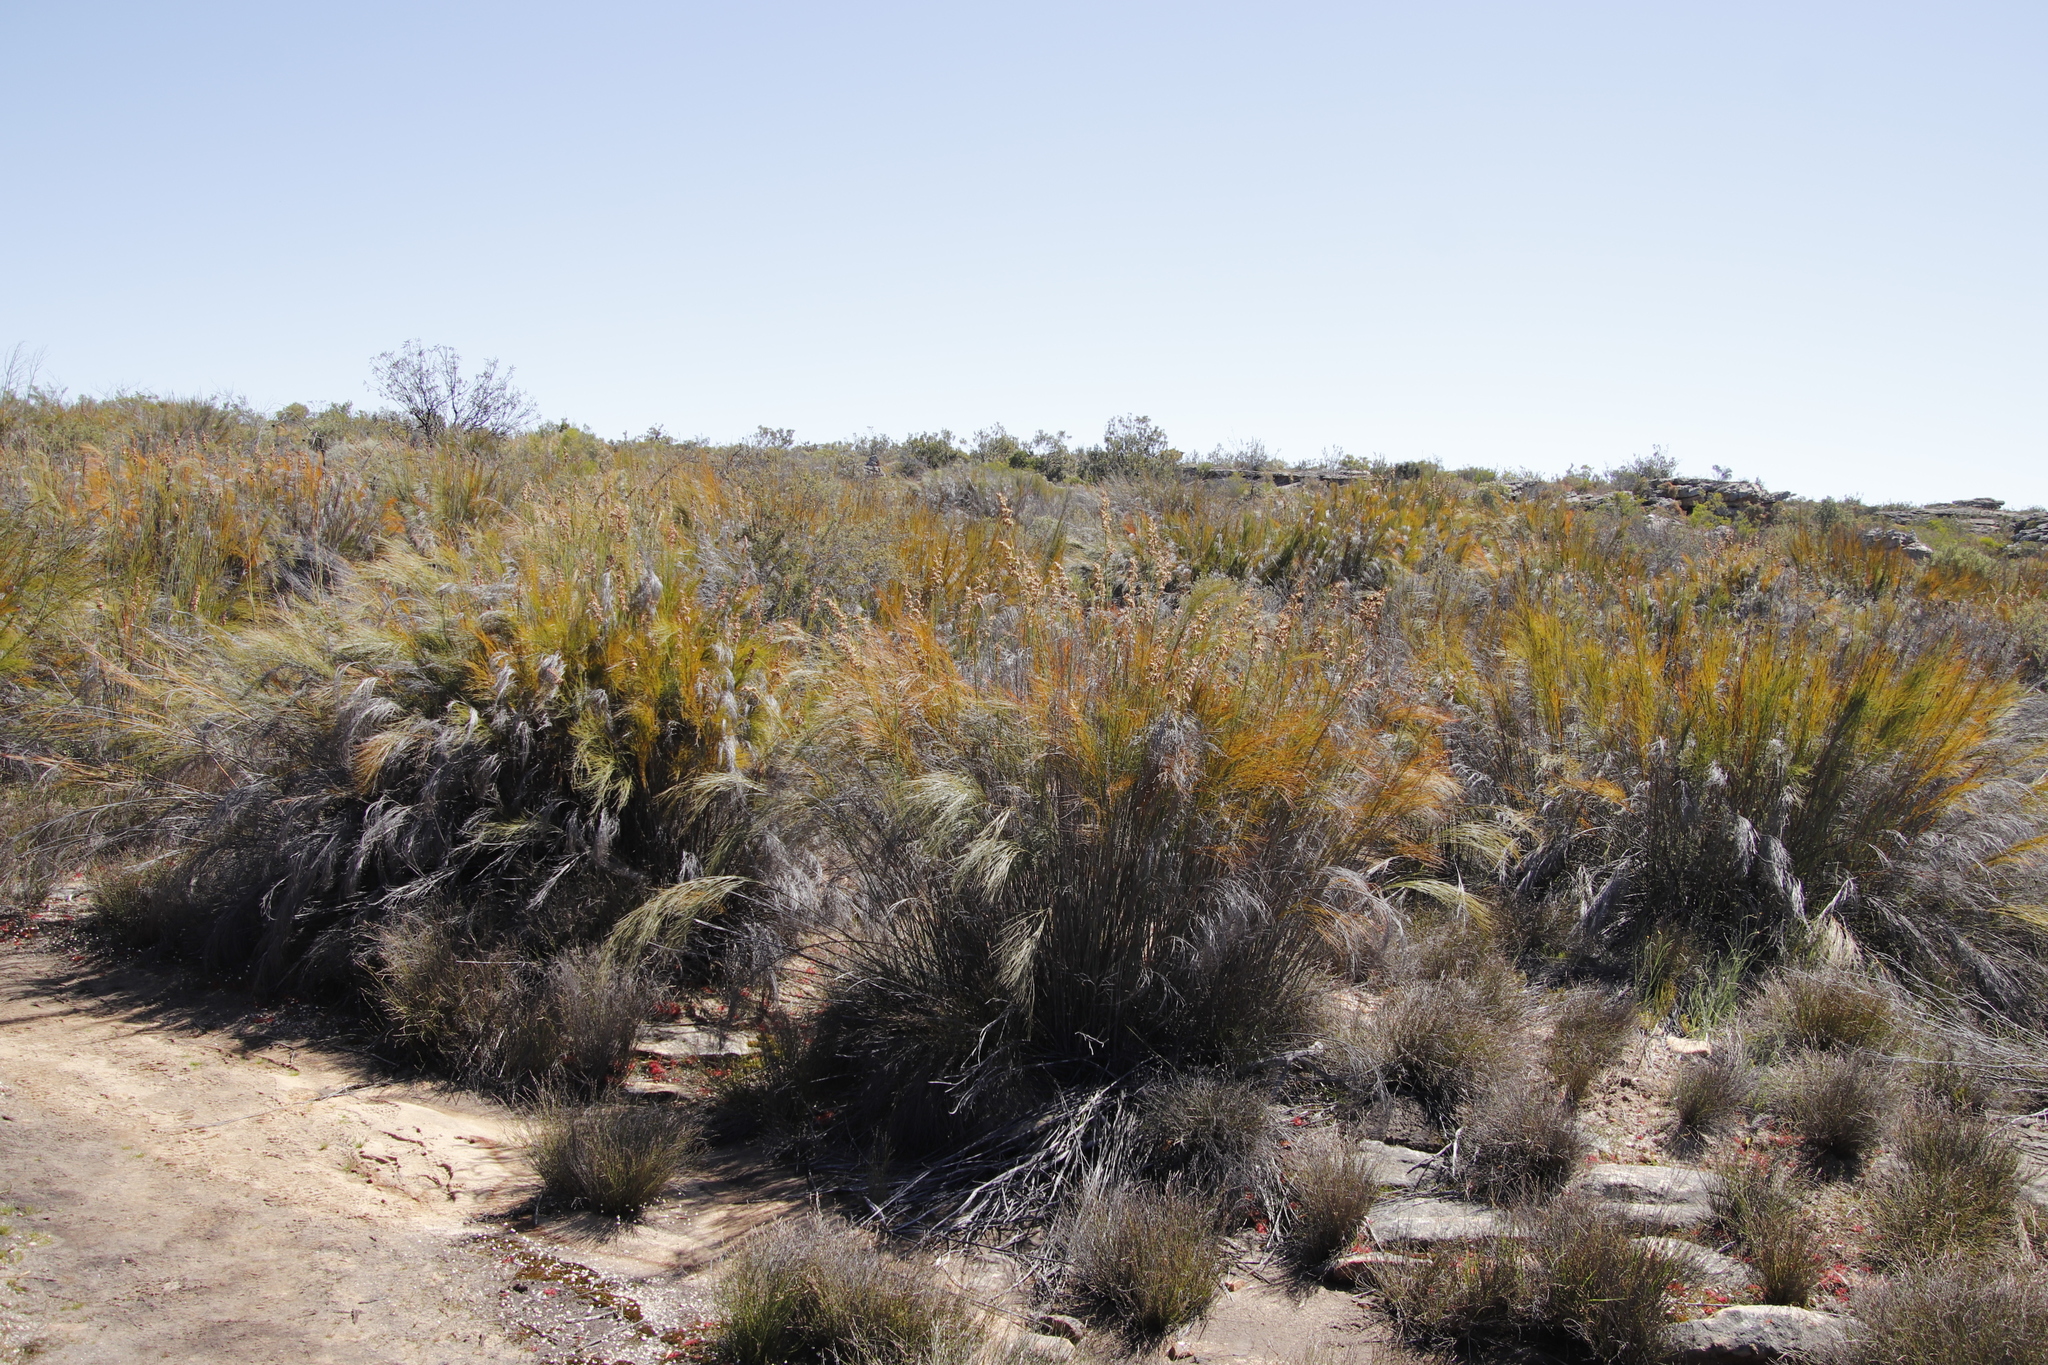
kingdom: Plantae
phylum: Tracheophyta
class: Liliopsida
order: Poales
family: Restionaceae
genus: Cannomois
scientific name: Cannomois robusta
